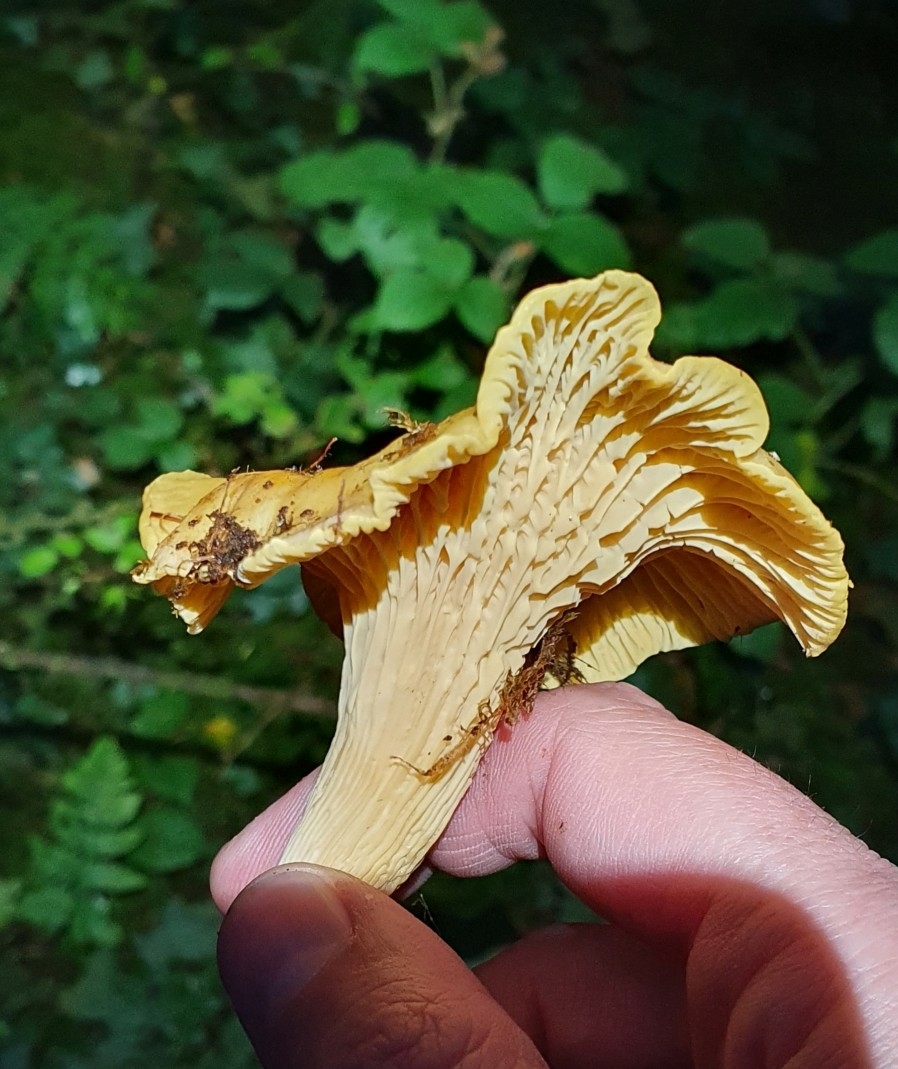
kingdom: Fungi
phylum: Basidiomycota
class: Agaricomycetes
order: Cantharellales
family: Hydnaceae
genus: Cantharellus
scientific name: Cantharellus cibarius
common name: Chanterelle
